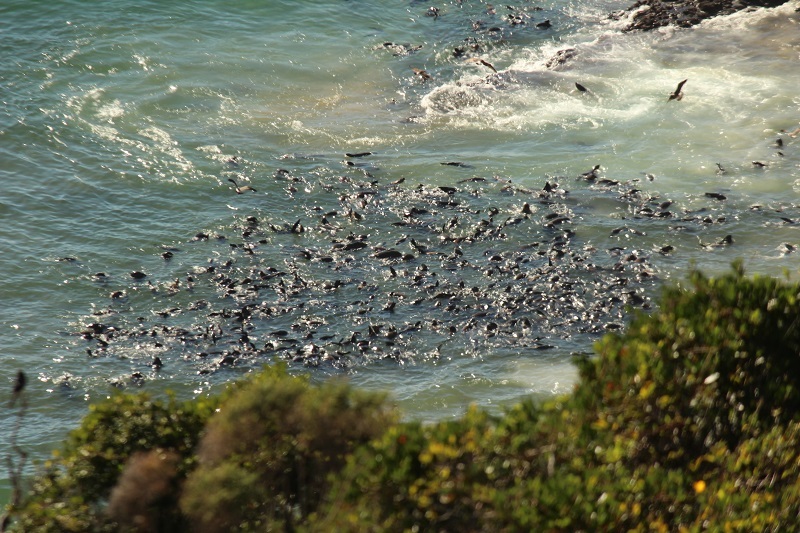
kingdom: Animalia
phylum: Chordata
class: Mammalia
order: Carnivora
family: Otariidae
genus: Arctocephalus
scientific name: Arctocephalus pusillus
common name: Brown fur seal
